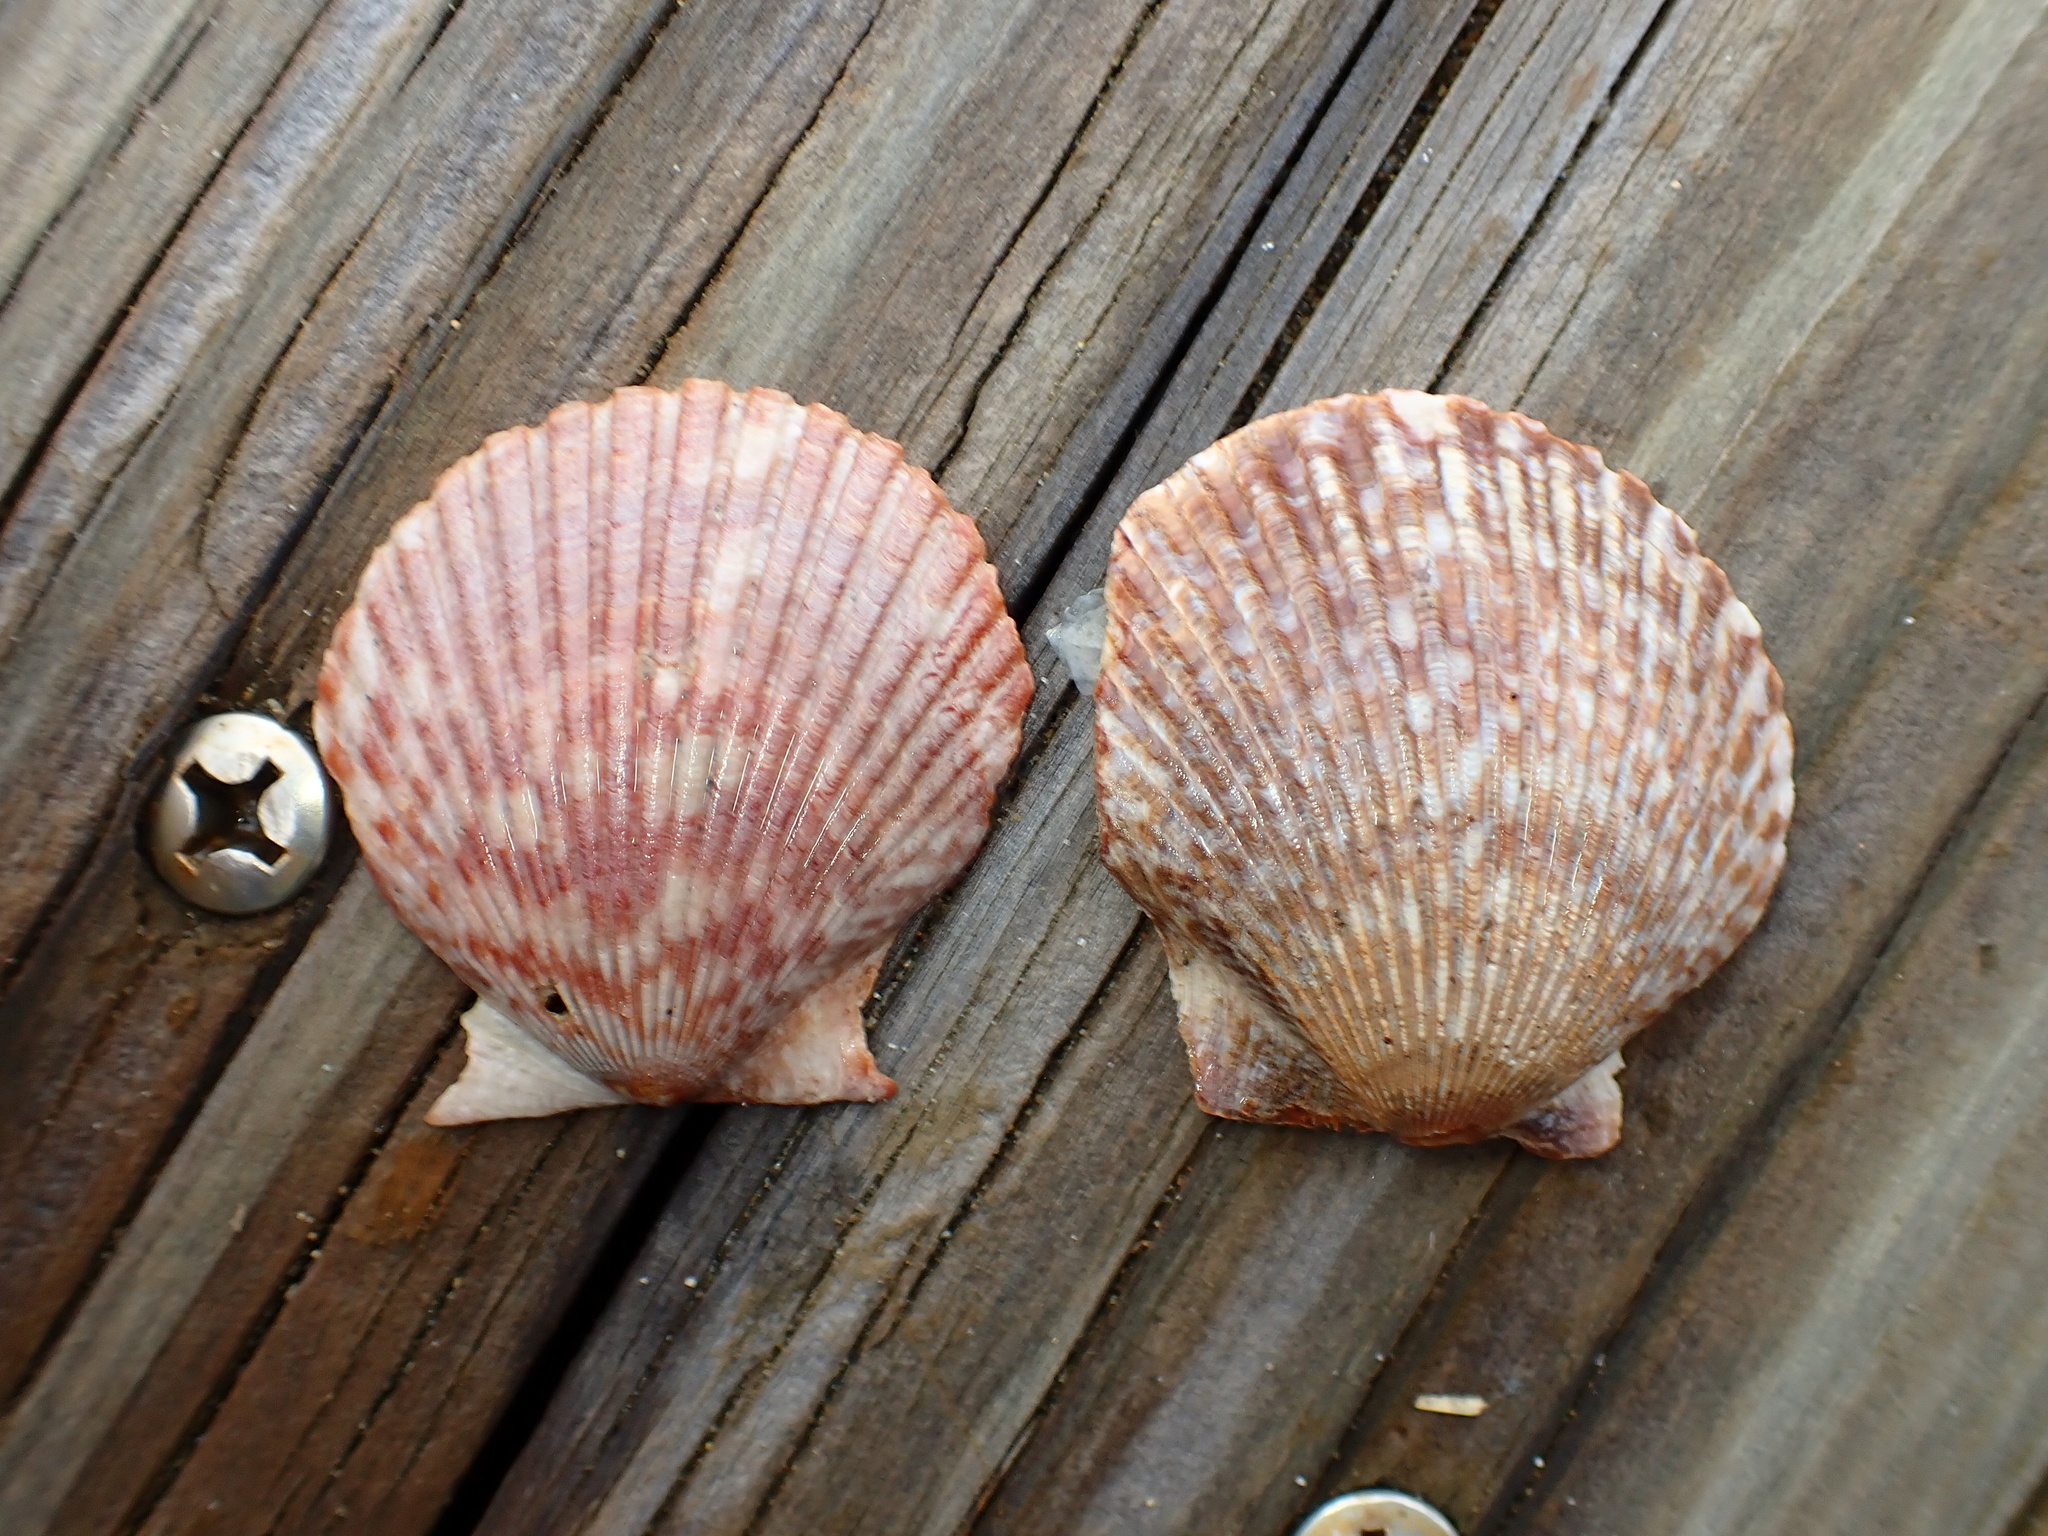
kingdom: Animalia
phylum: Mollusca
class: Bivalvia
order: Pectinida
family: Pectinidae
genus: Argopecten
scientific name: Argopecten ventricosus
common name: Catarina scallop
